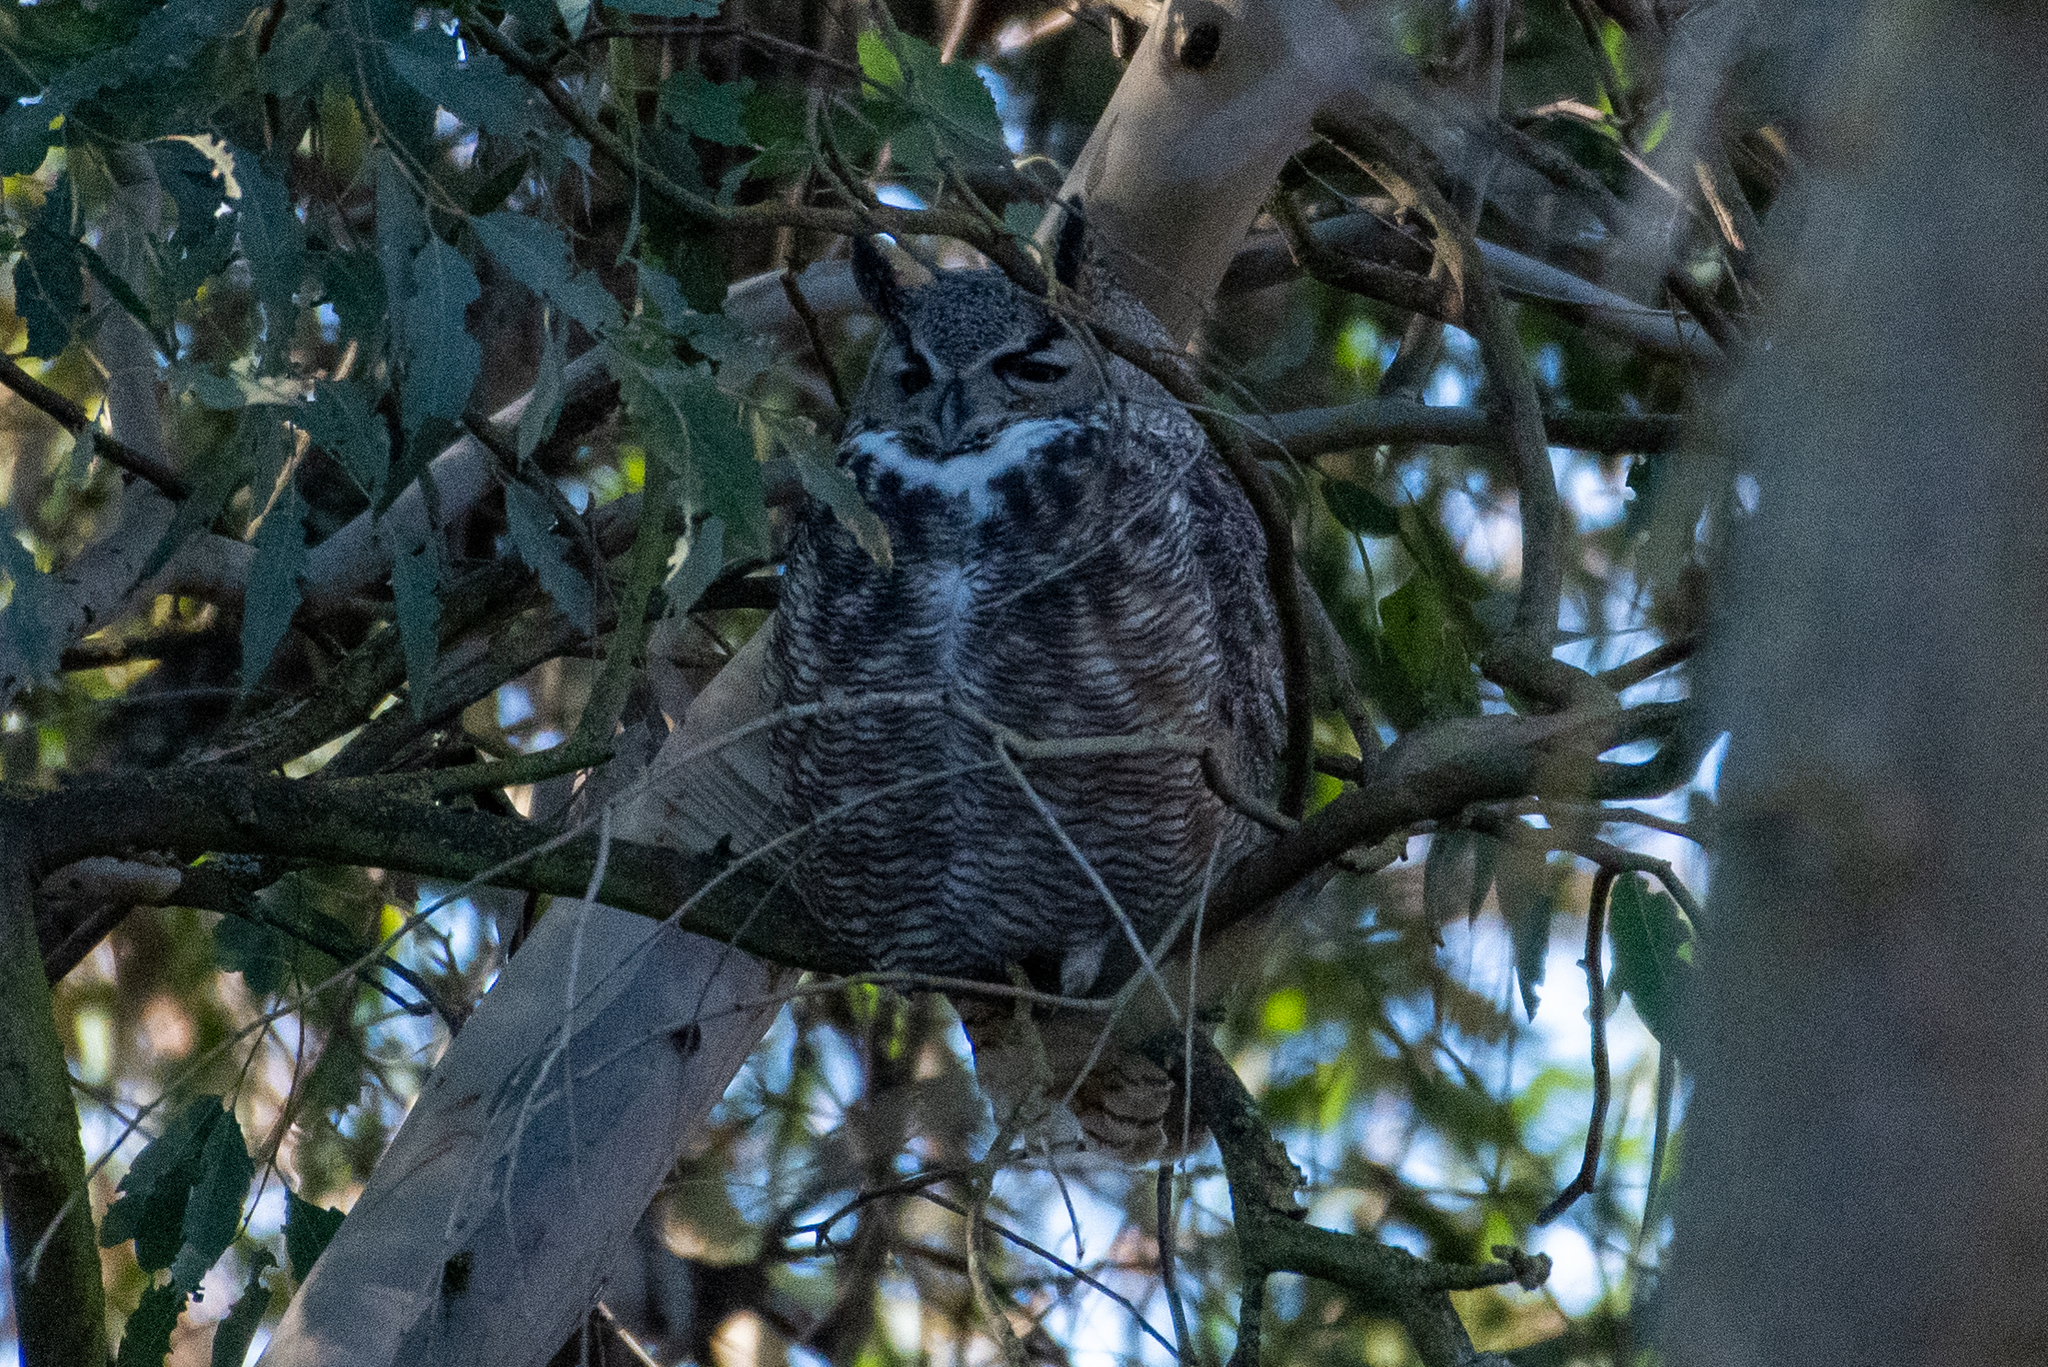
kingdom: Animalia
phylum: Chordata
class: Aves
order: Strigiformes
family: Strigidae
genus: Bubo
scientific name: Bubo virginianus
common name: Great horned owl
